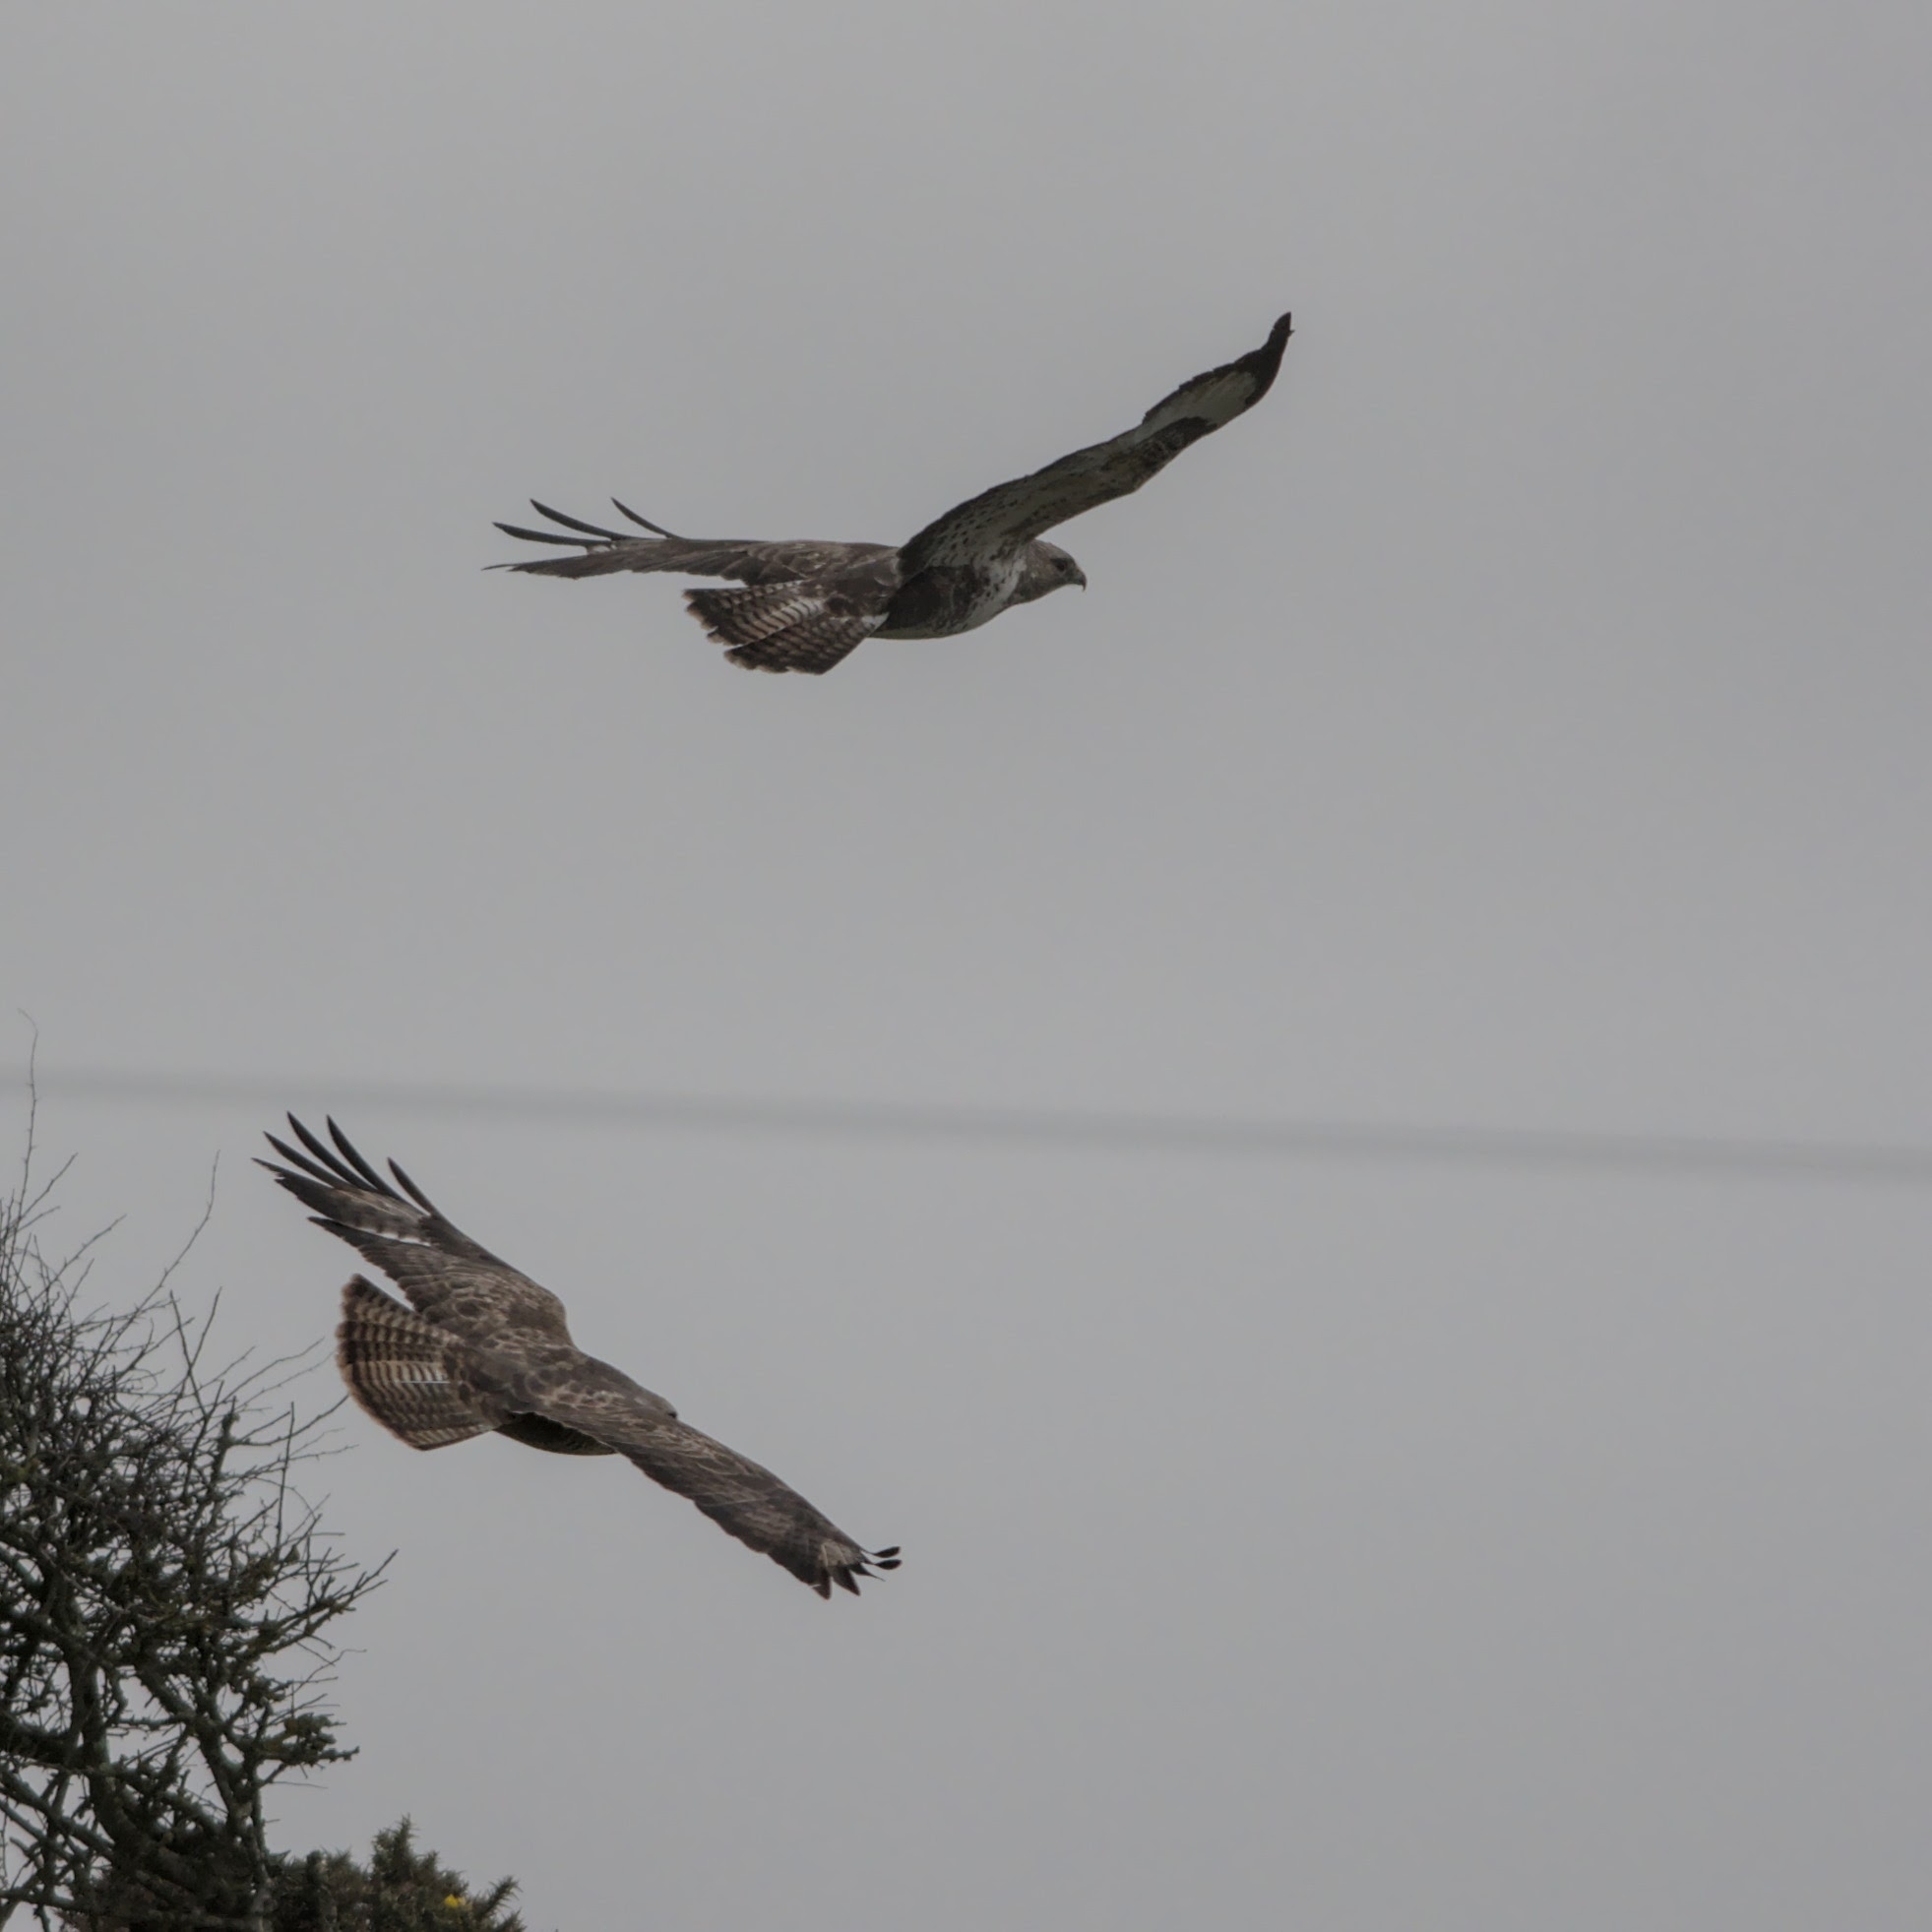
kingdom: Animalia
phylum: Chordata
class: Aves
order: Accipitriformes
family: Accipitridae
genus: Buteo
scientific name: Buteo buteo
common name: Common buzzard
